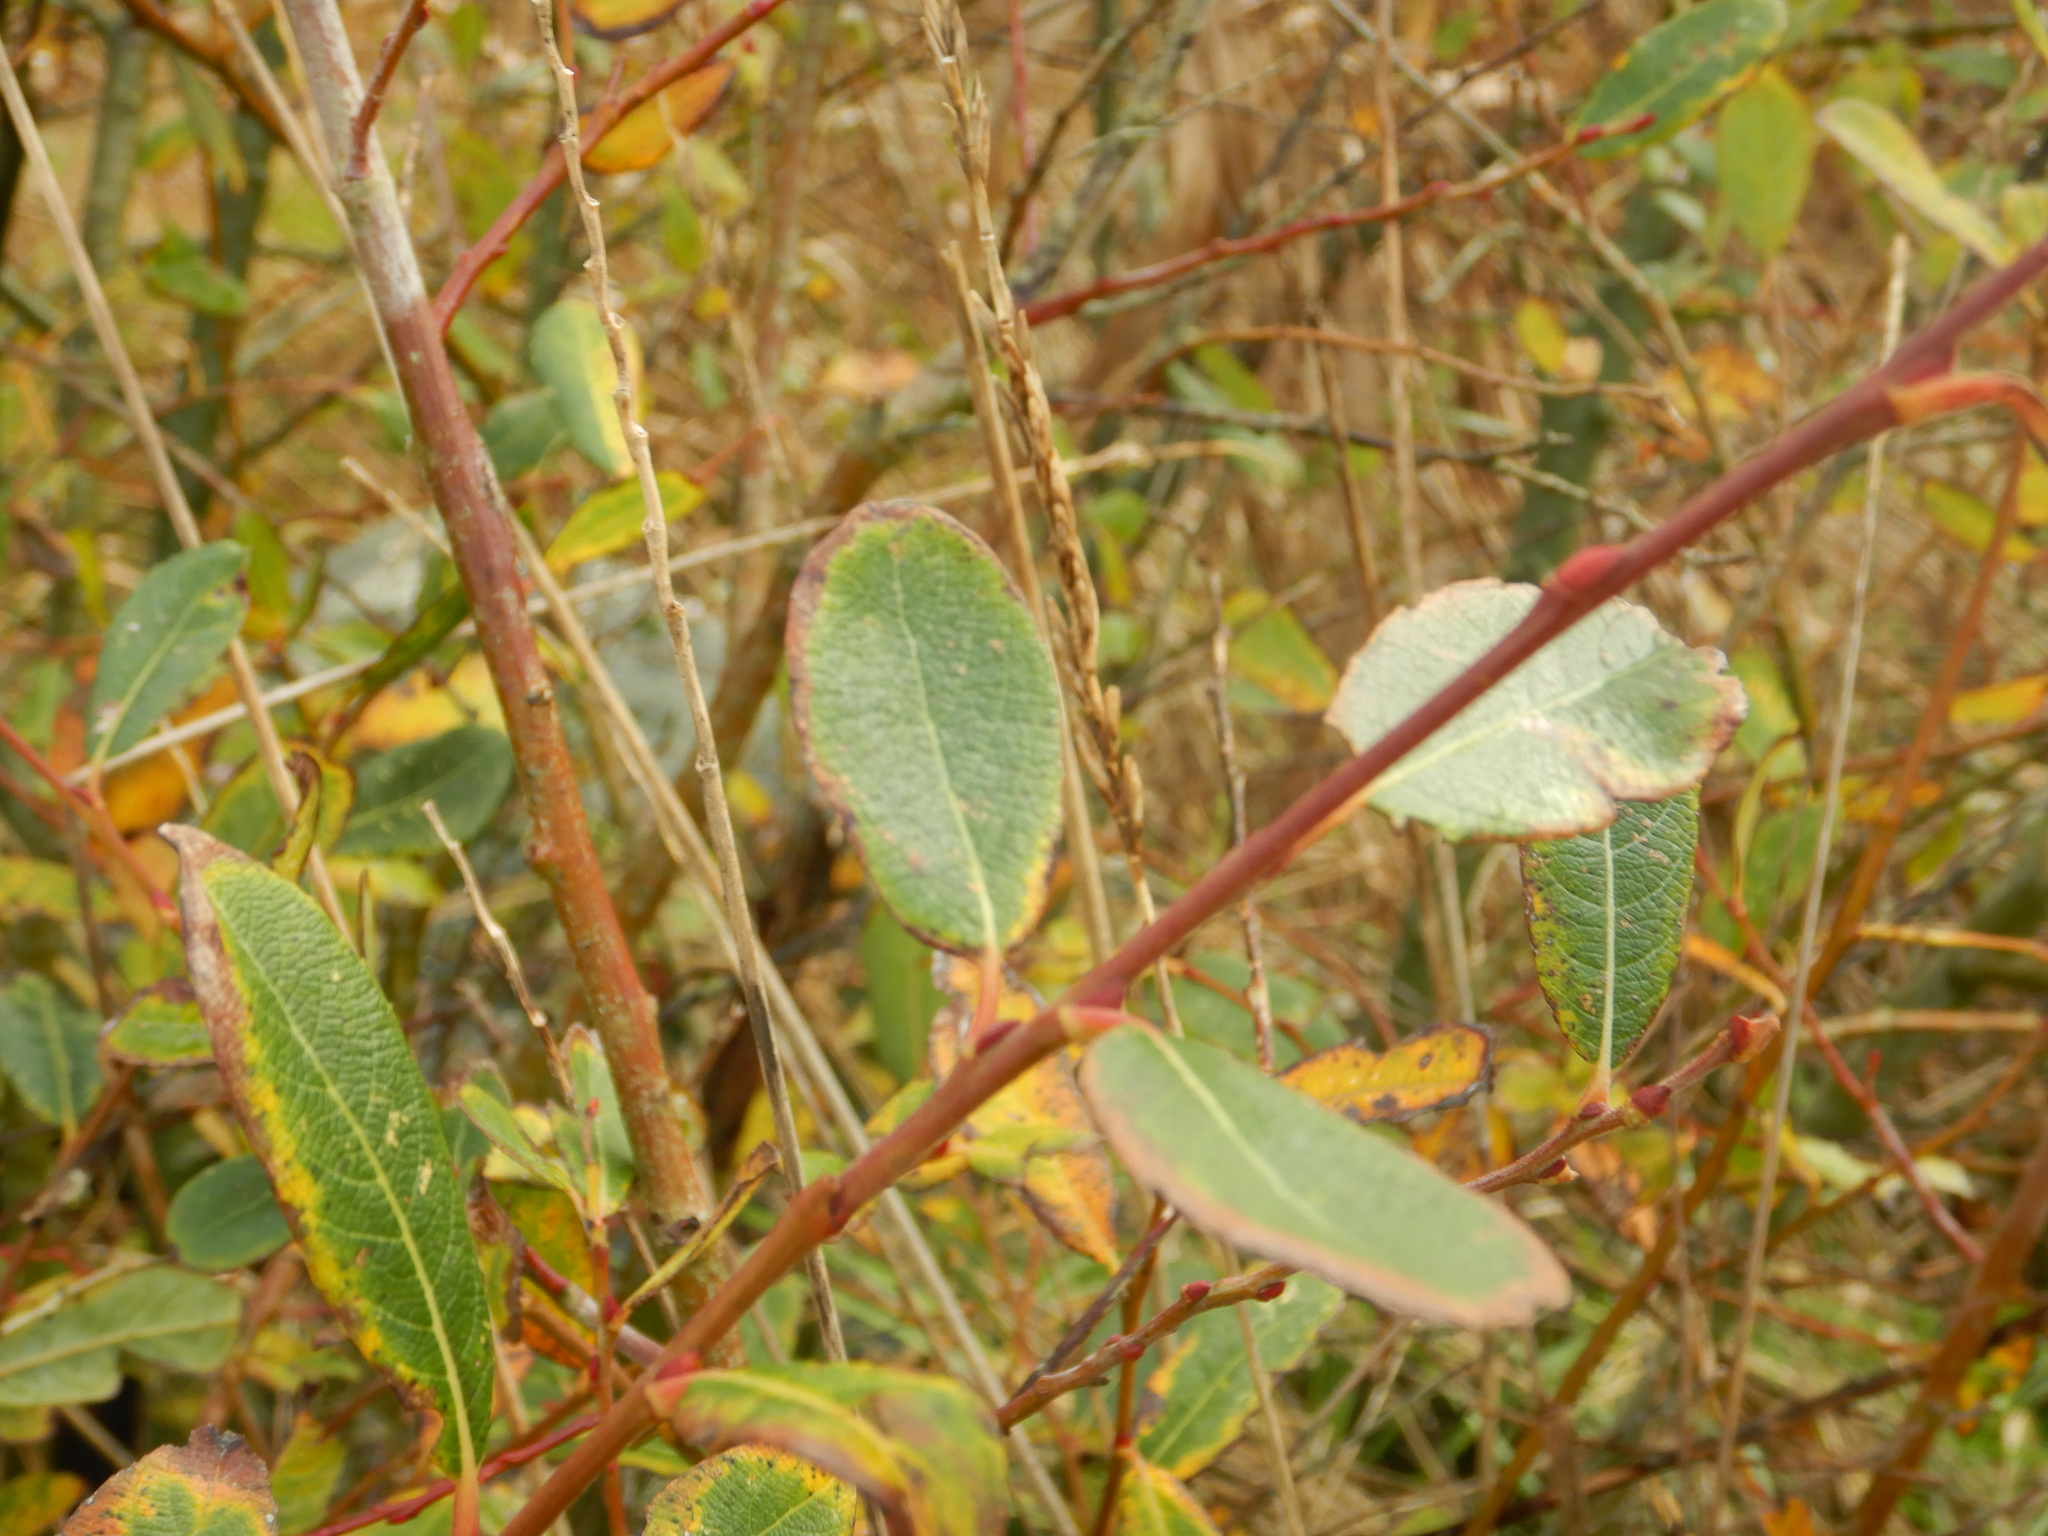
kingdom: Plantae
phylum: Tracheophyta
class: Magnoliopsida
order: Malpighiales
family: Salicaceae
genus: Salix
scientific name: Salix atrocinerea
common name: Rusty willow
